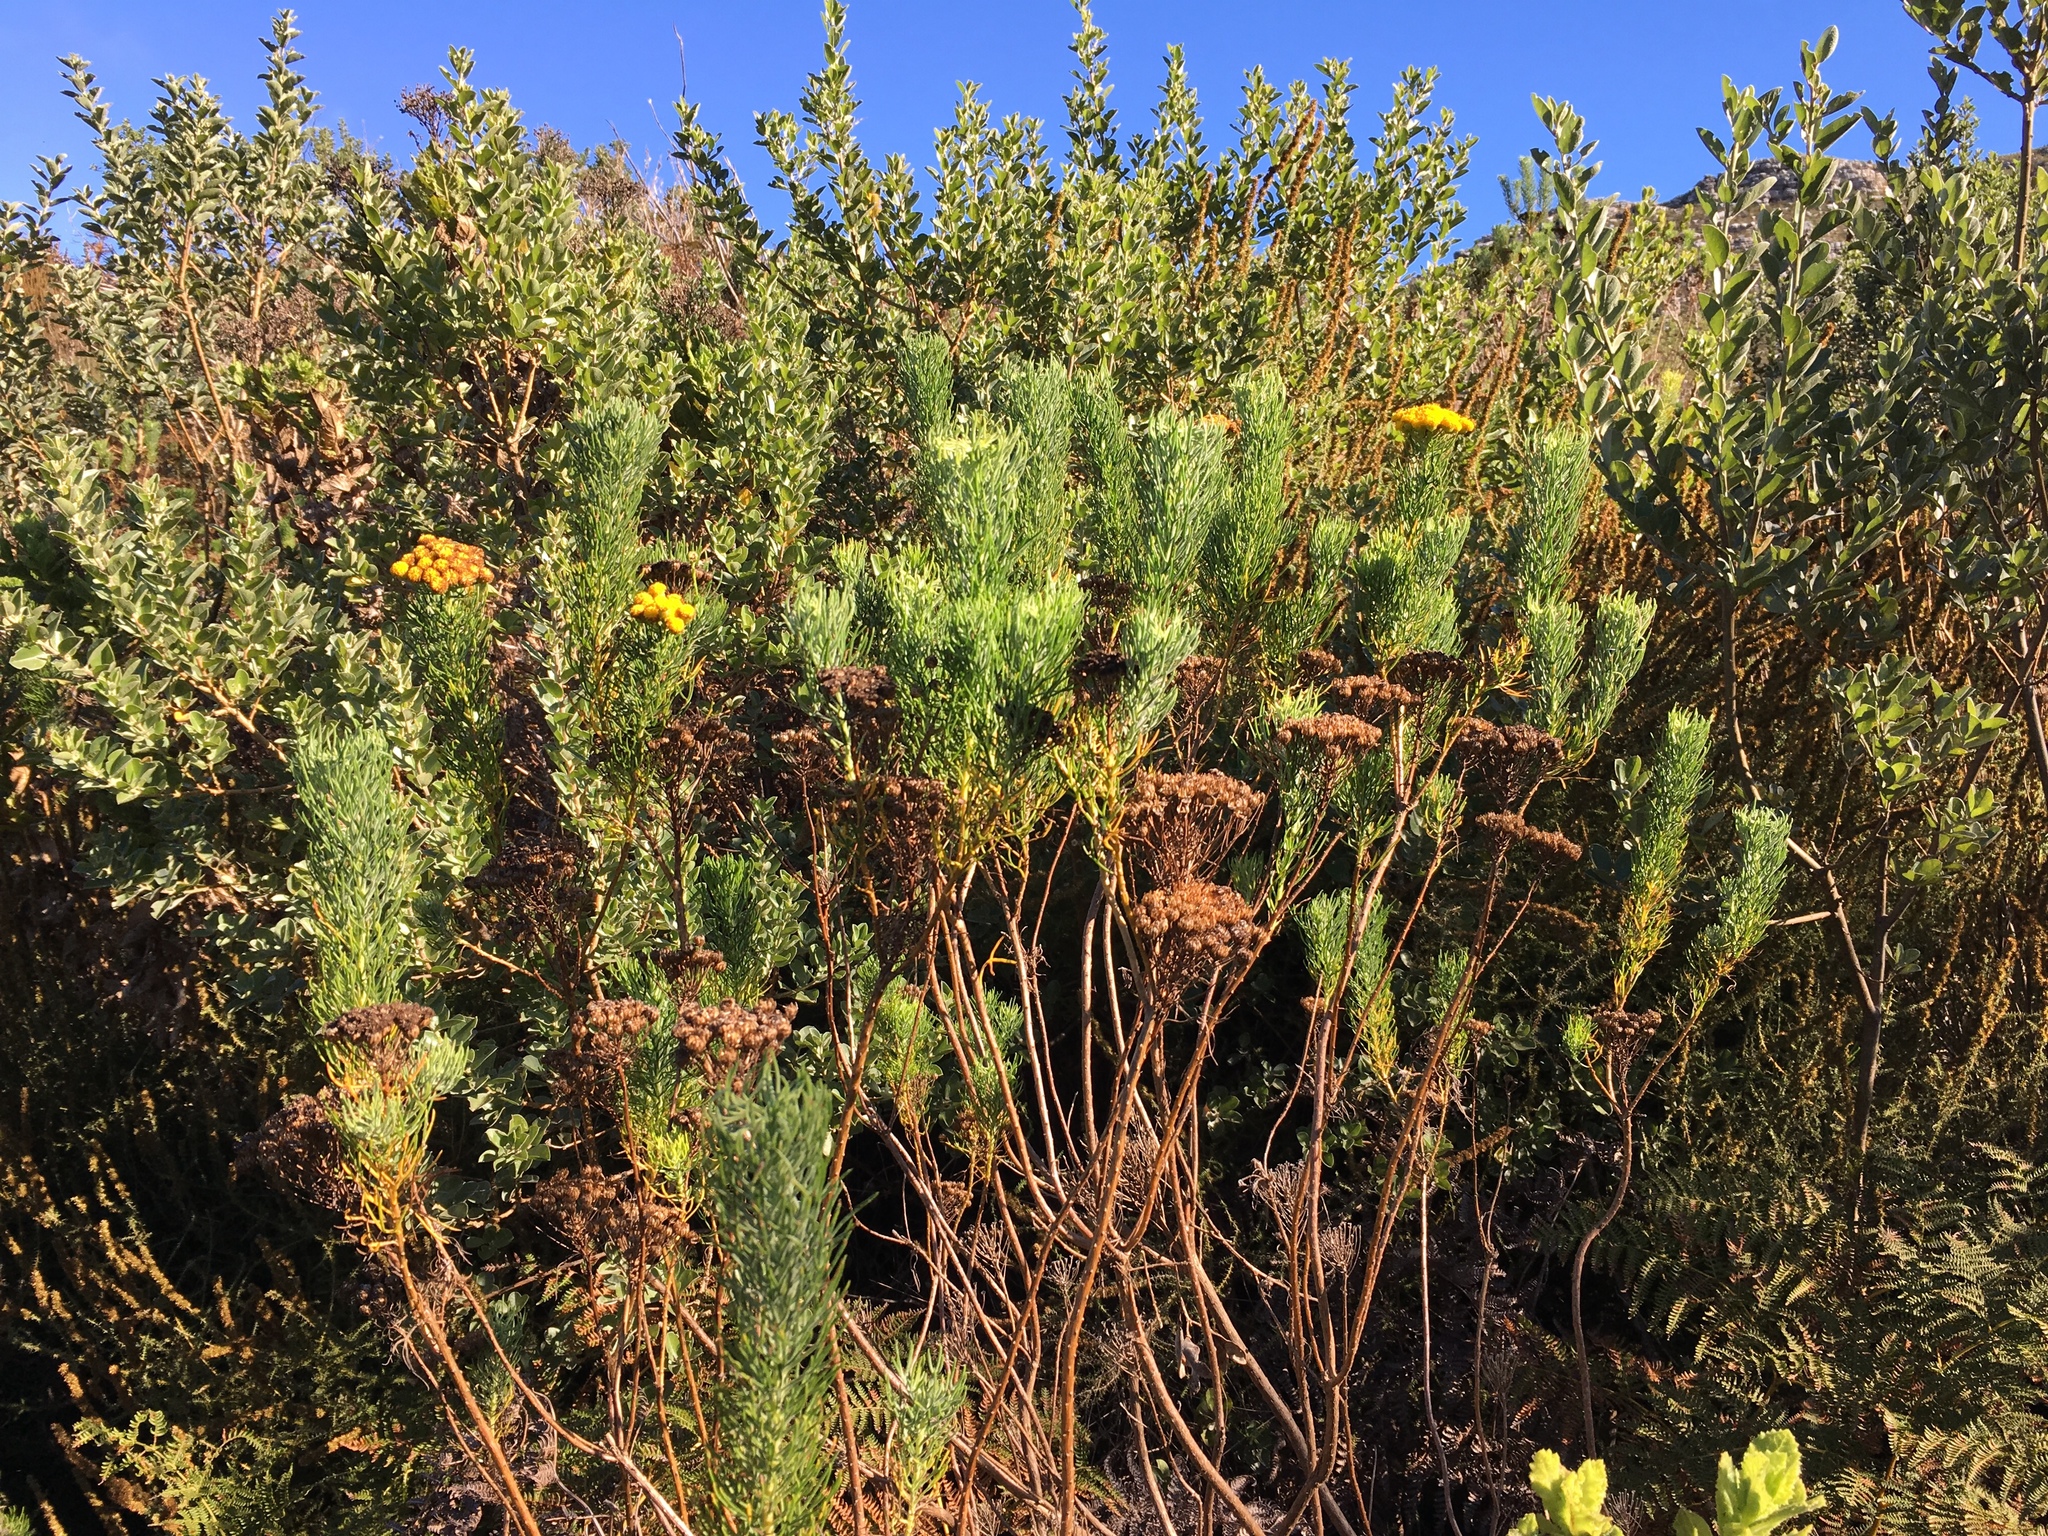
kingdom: Plantae
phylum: Tracheophyta
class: Magnoliopsida
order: Asterales
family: Asteraceae
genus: Athanasia
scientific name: Athanasia crithmifolia
